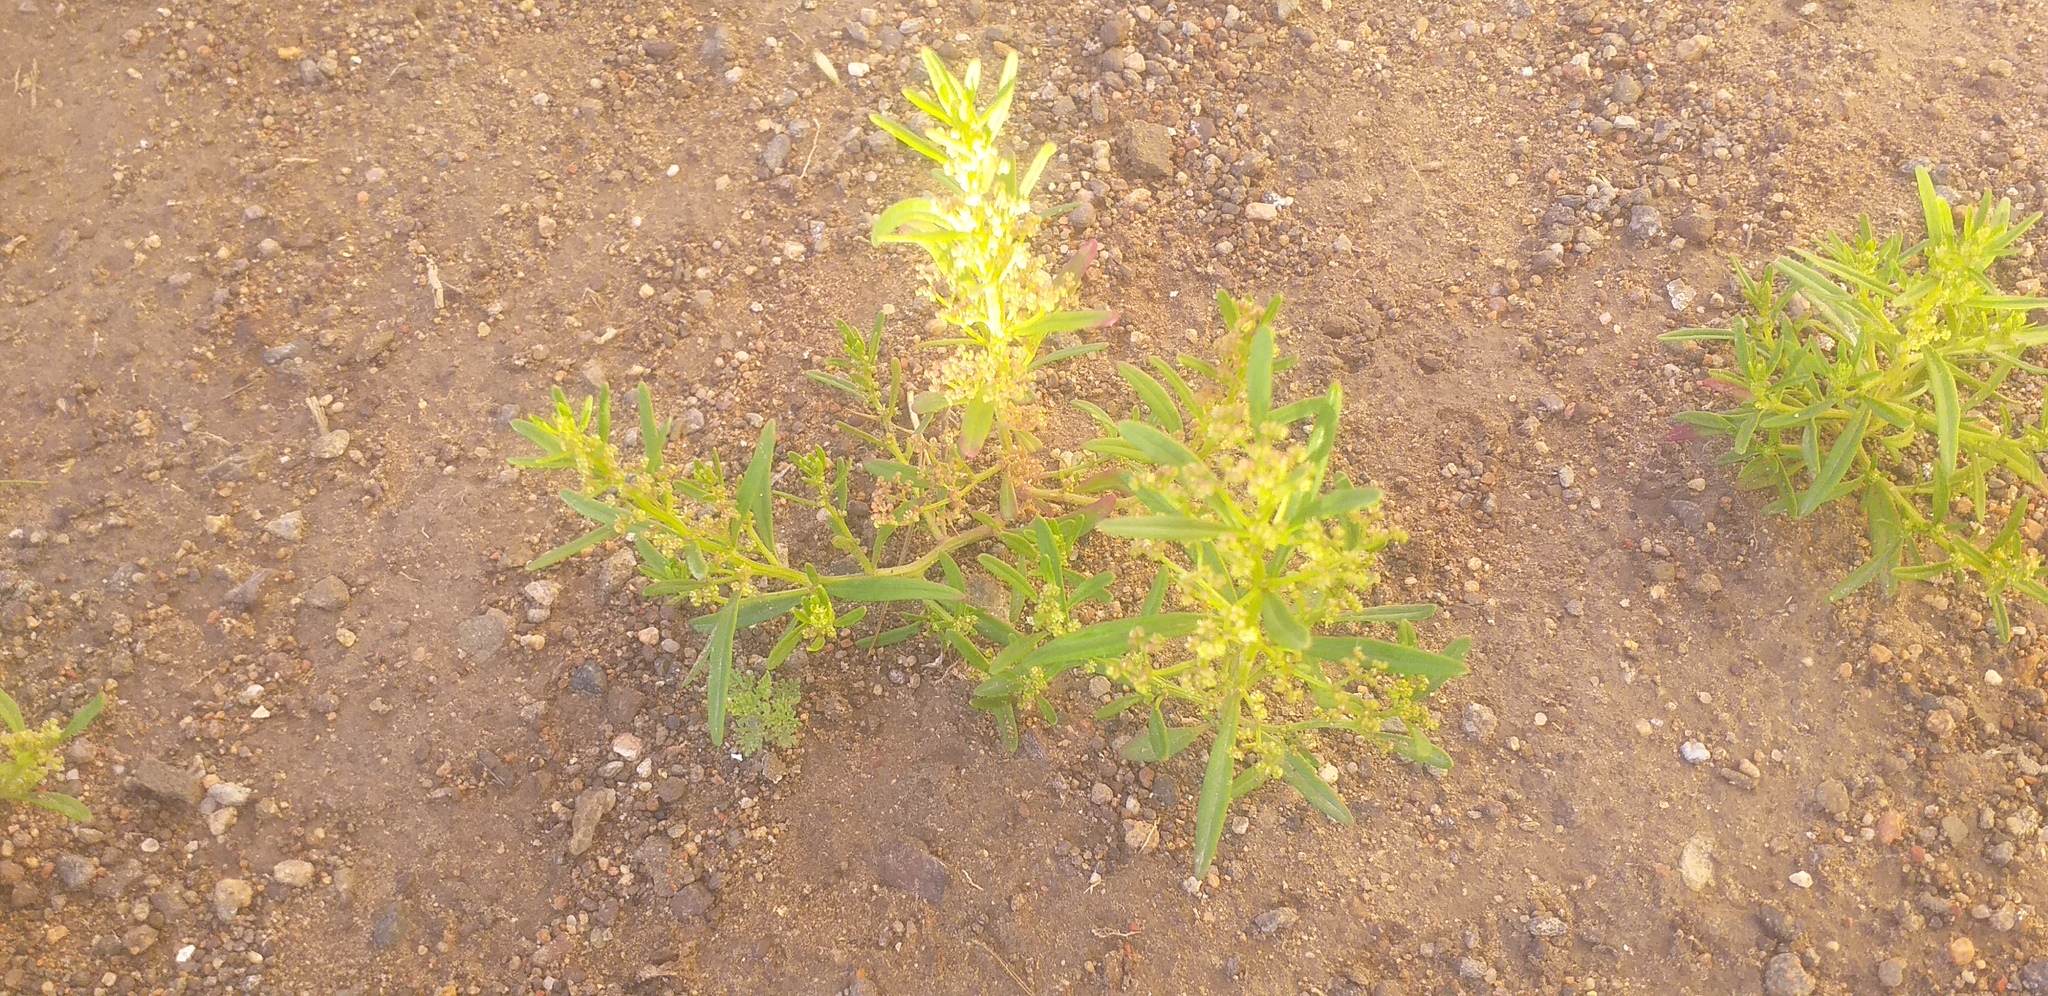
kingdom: Plantae
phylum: Tracheophyta
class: Magnoliopsida
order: Caryophyllales
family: Amaranthaceae
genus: Teloxys
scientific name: Teloxys aristata
